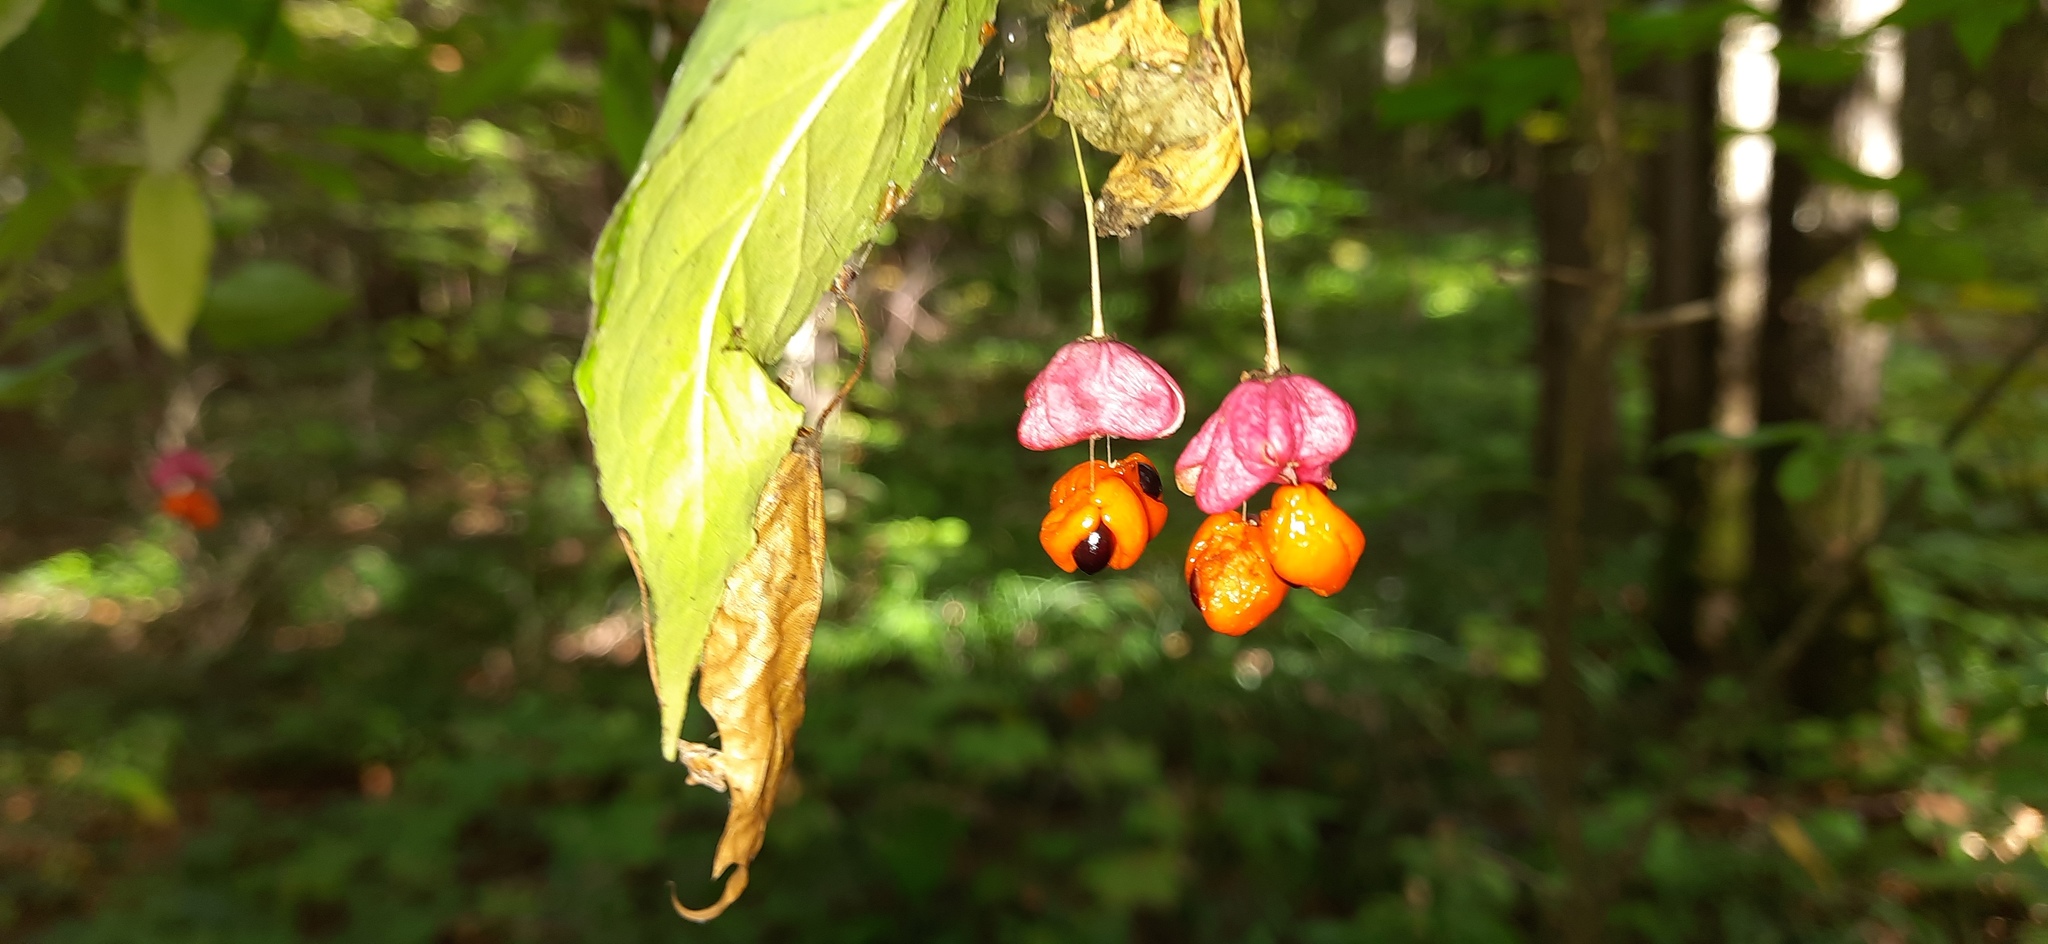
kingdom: Plantae
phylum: Tracheophyta
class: Magnoliopsida
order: Celastrales
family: Celastraceae
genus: Euonymus
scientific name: Euonymus verrucosus
